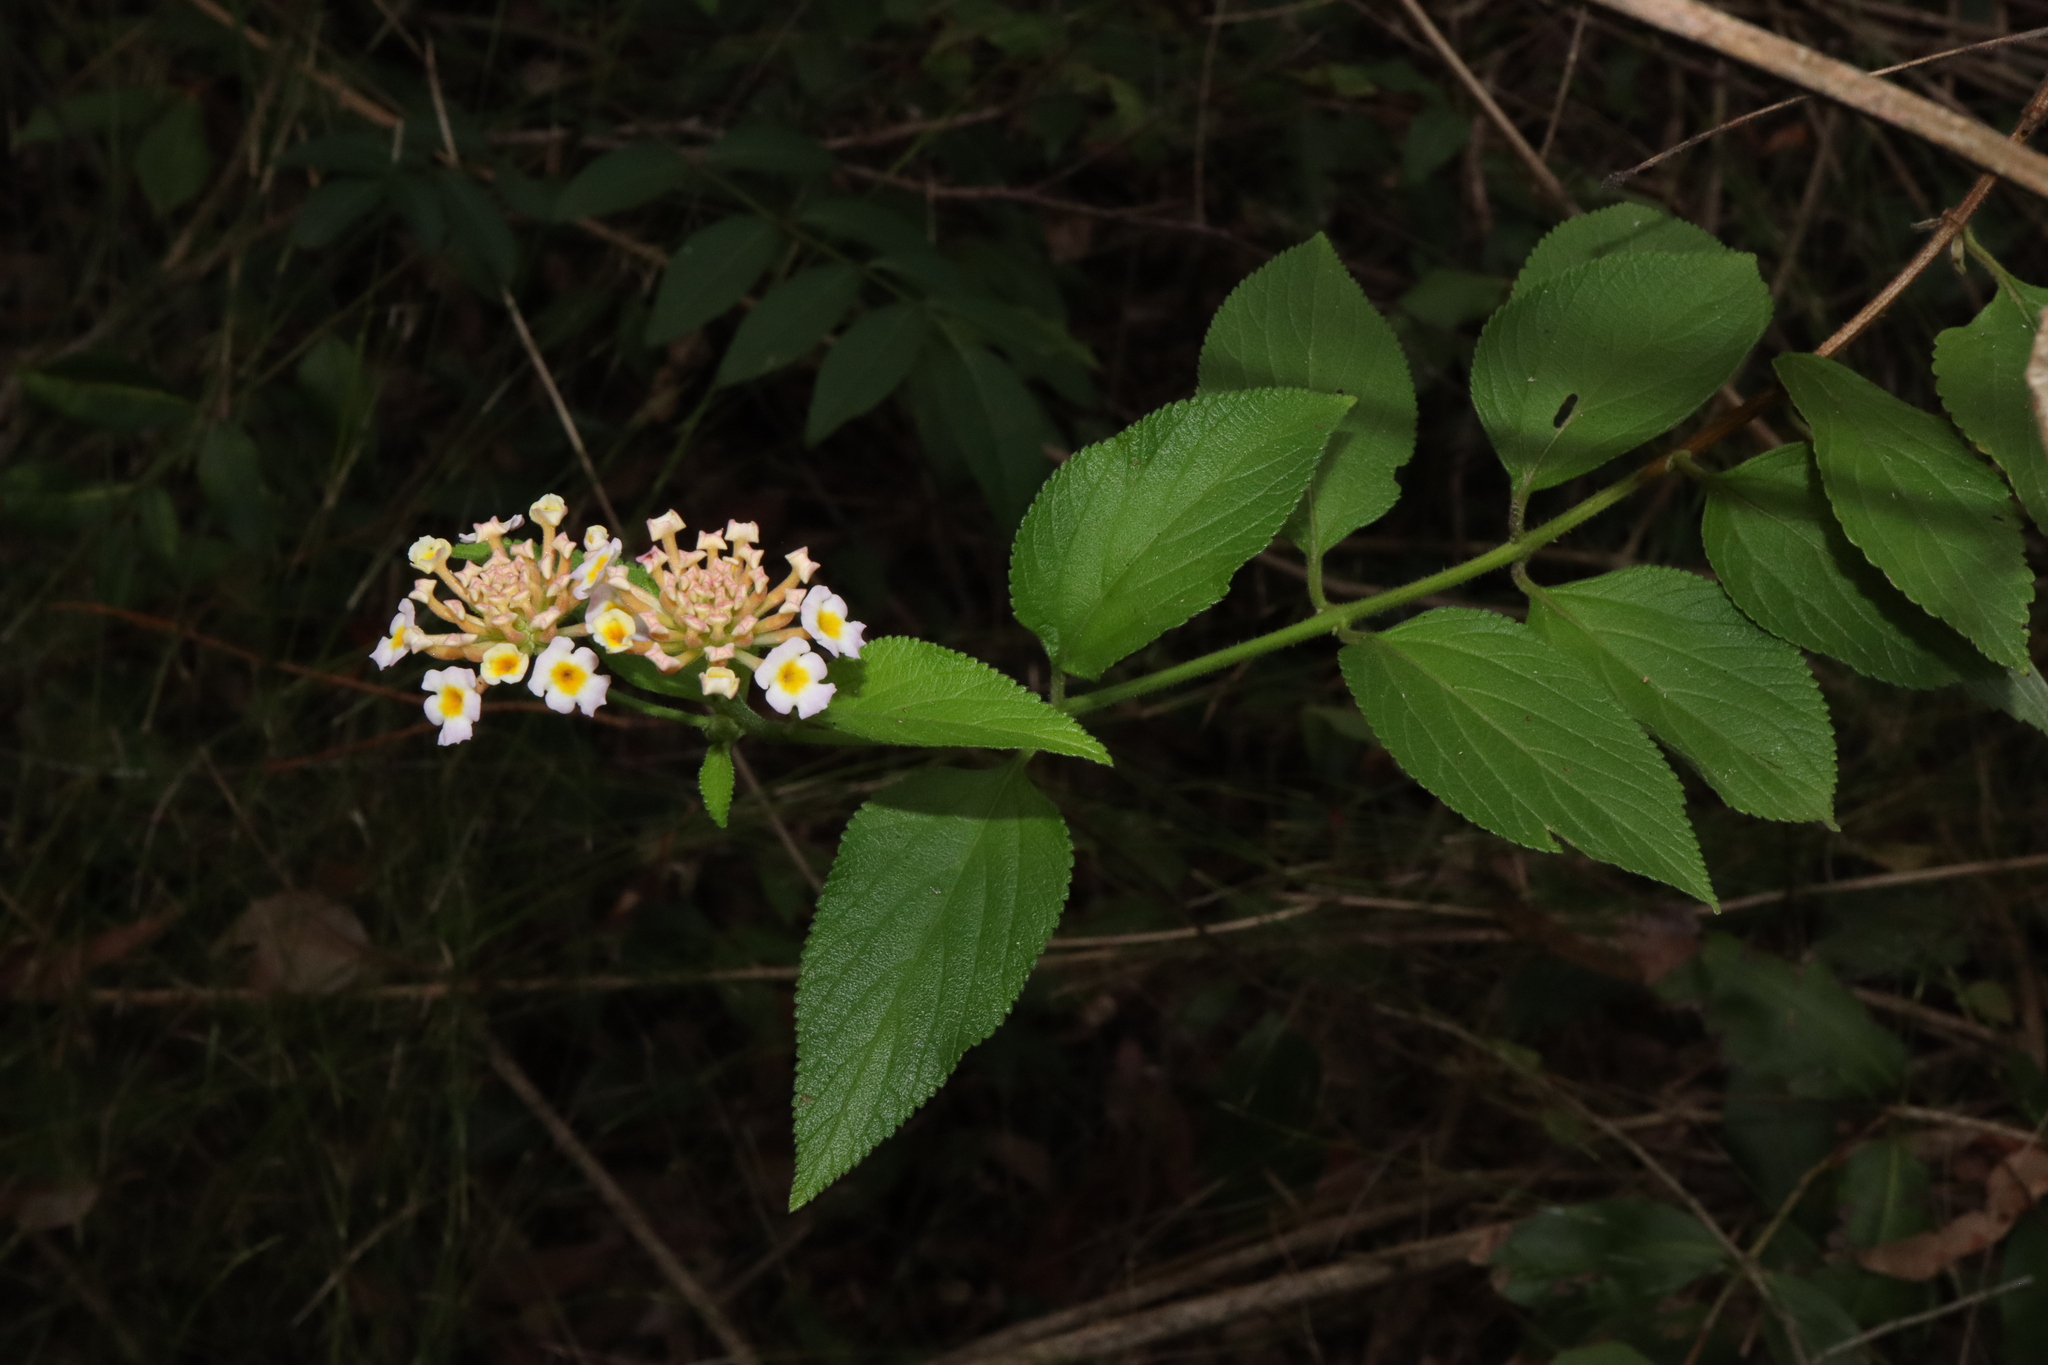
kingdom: Plantae
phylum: Tracheophyta
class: Magnoliopsida
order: Lamiales
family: Verbenaceae
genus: Lantana
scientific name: Lantana camara
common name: Lantana
